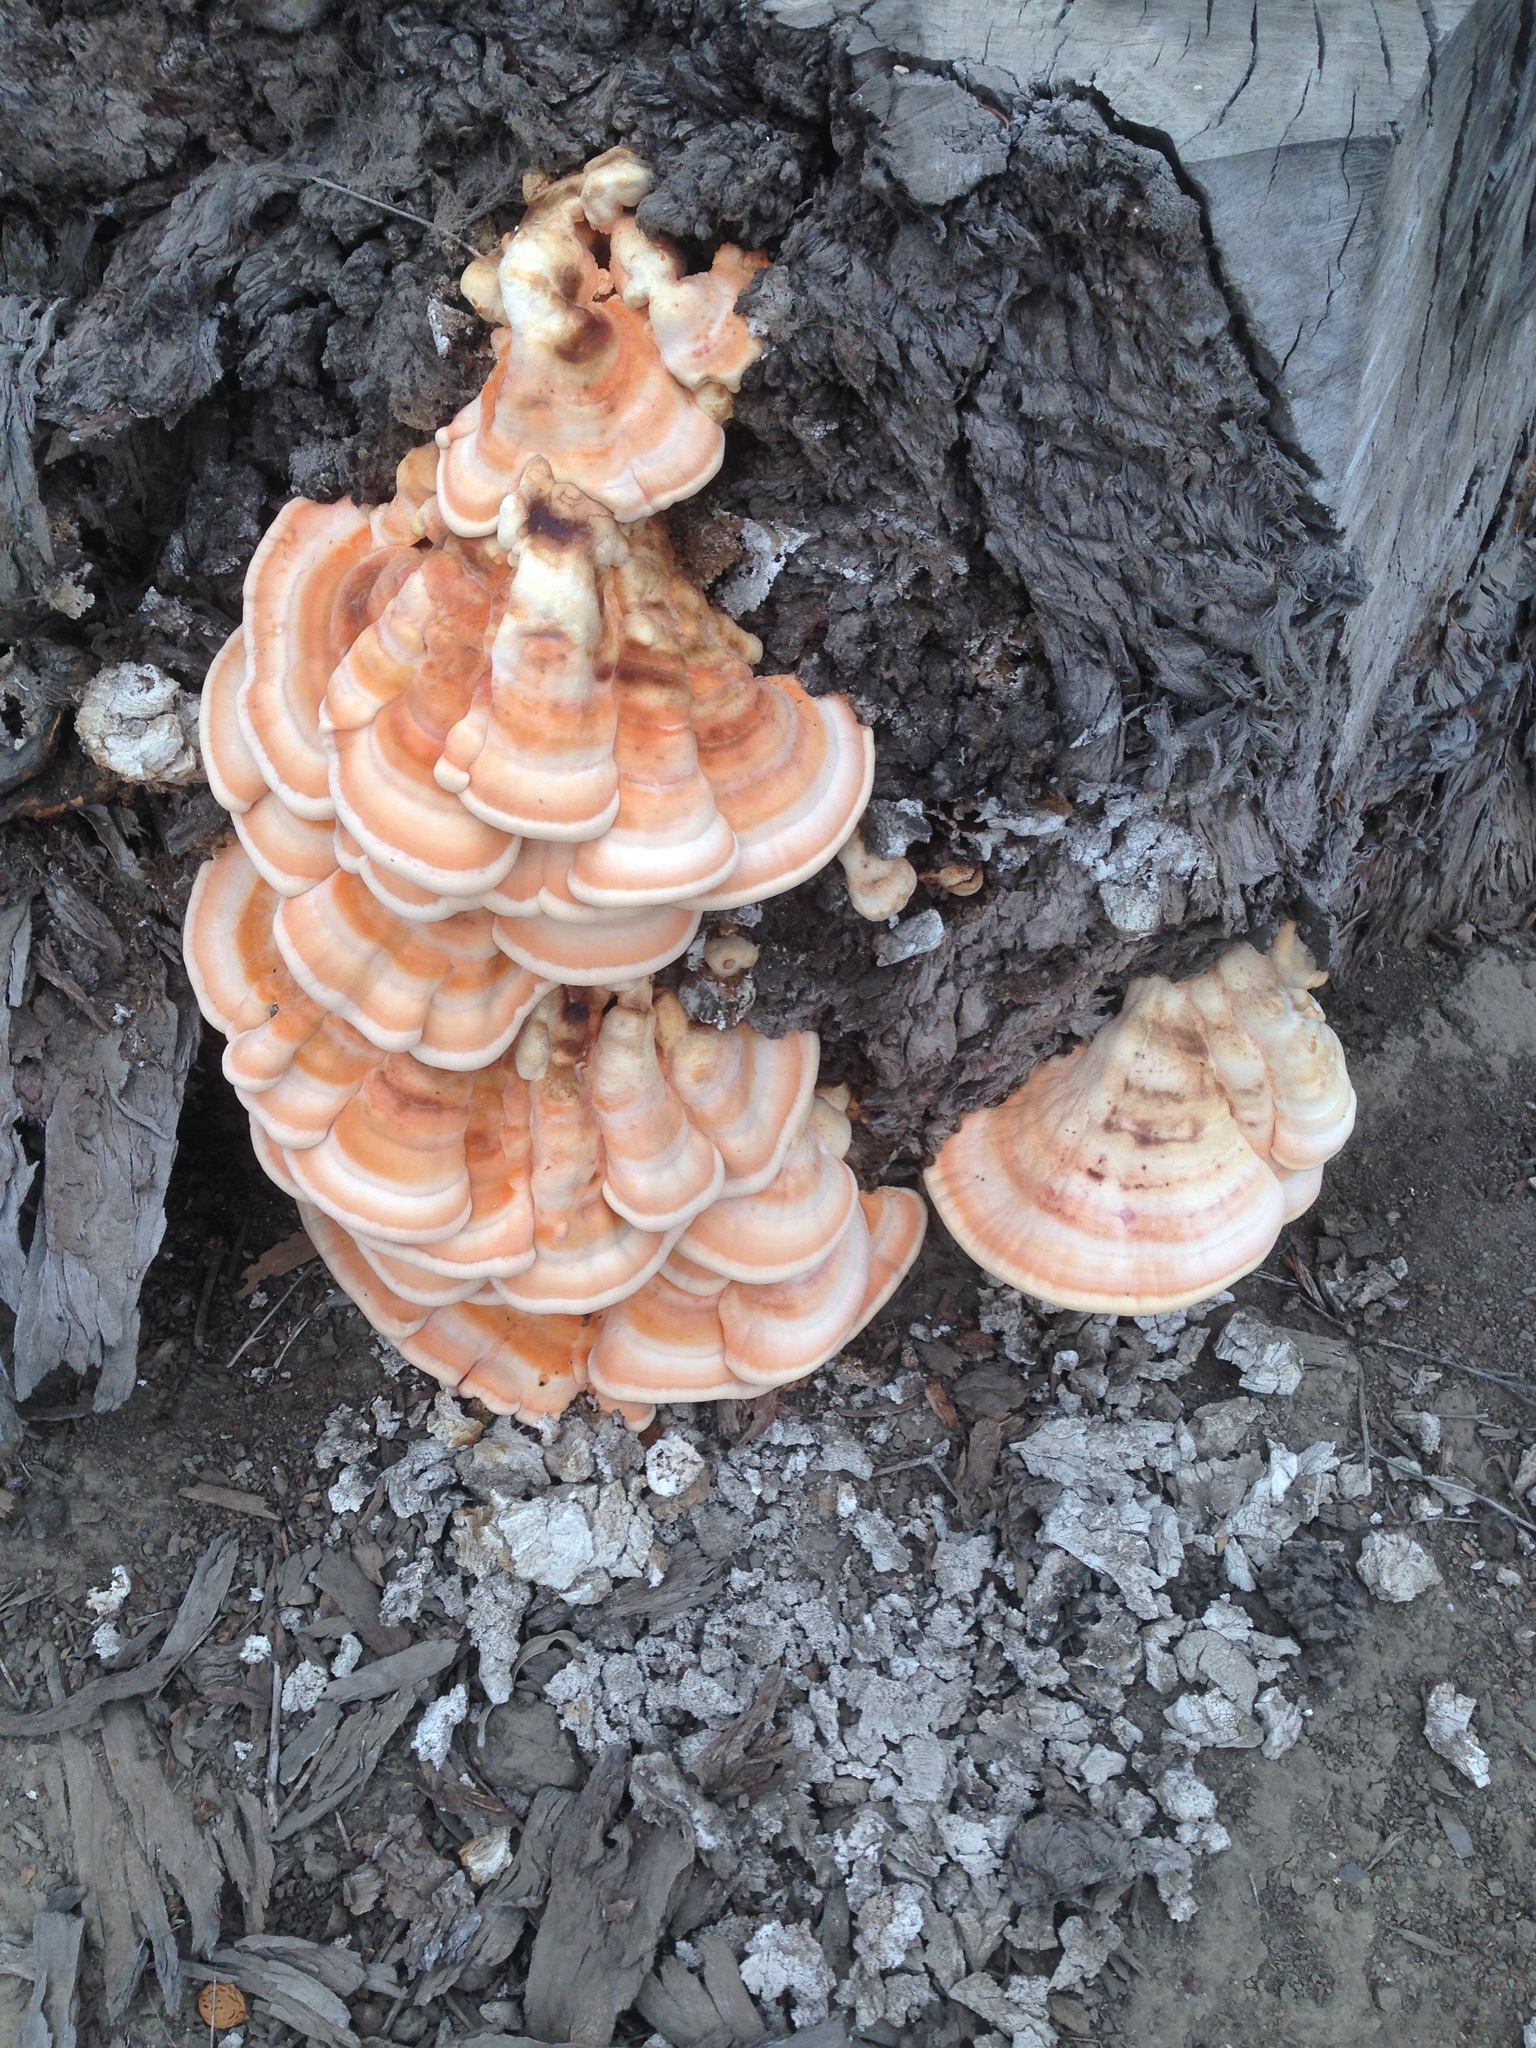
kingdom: Fungi
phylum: Basidiomycota
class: Agaricomycetes
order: Polyporales
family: Laetiporaceae
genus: Laetiporus
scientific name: Laetiporus gilbertsonii
